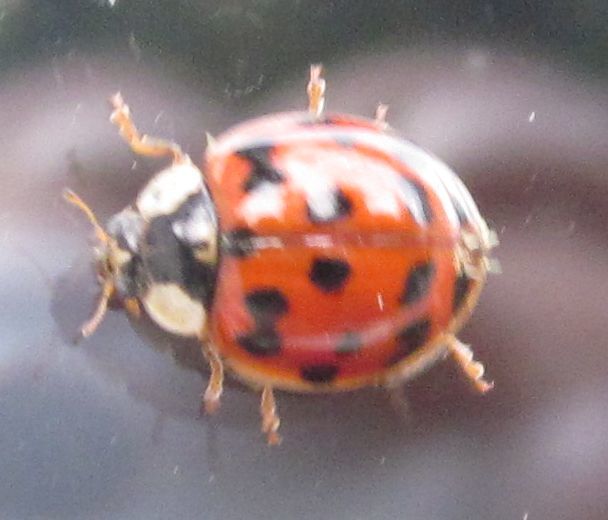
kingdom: Animalia
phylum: Arthropoda
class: Insecta
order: Coleoptera
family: Coccinellidae
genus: Harmonia
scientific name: Harmonia axyridis
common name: Harlequin ladybird
